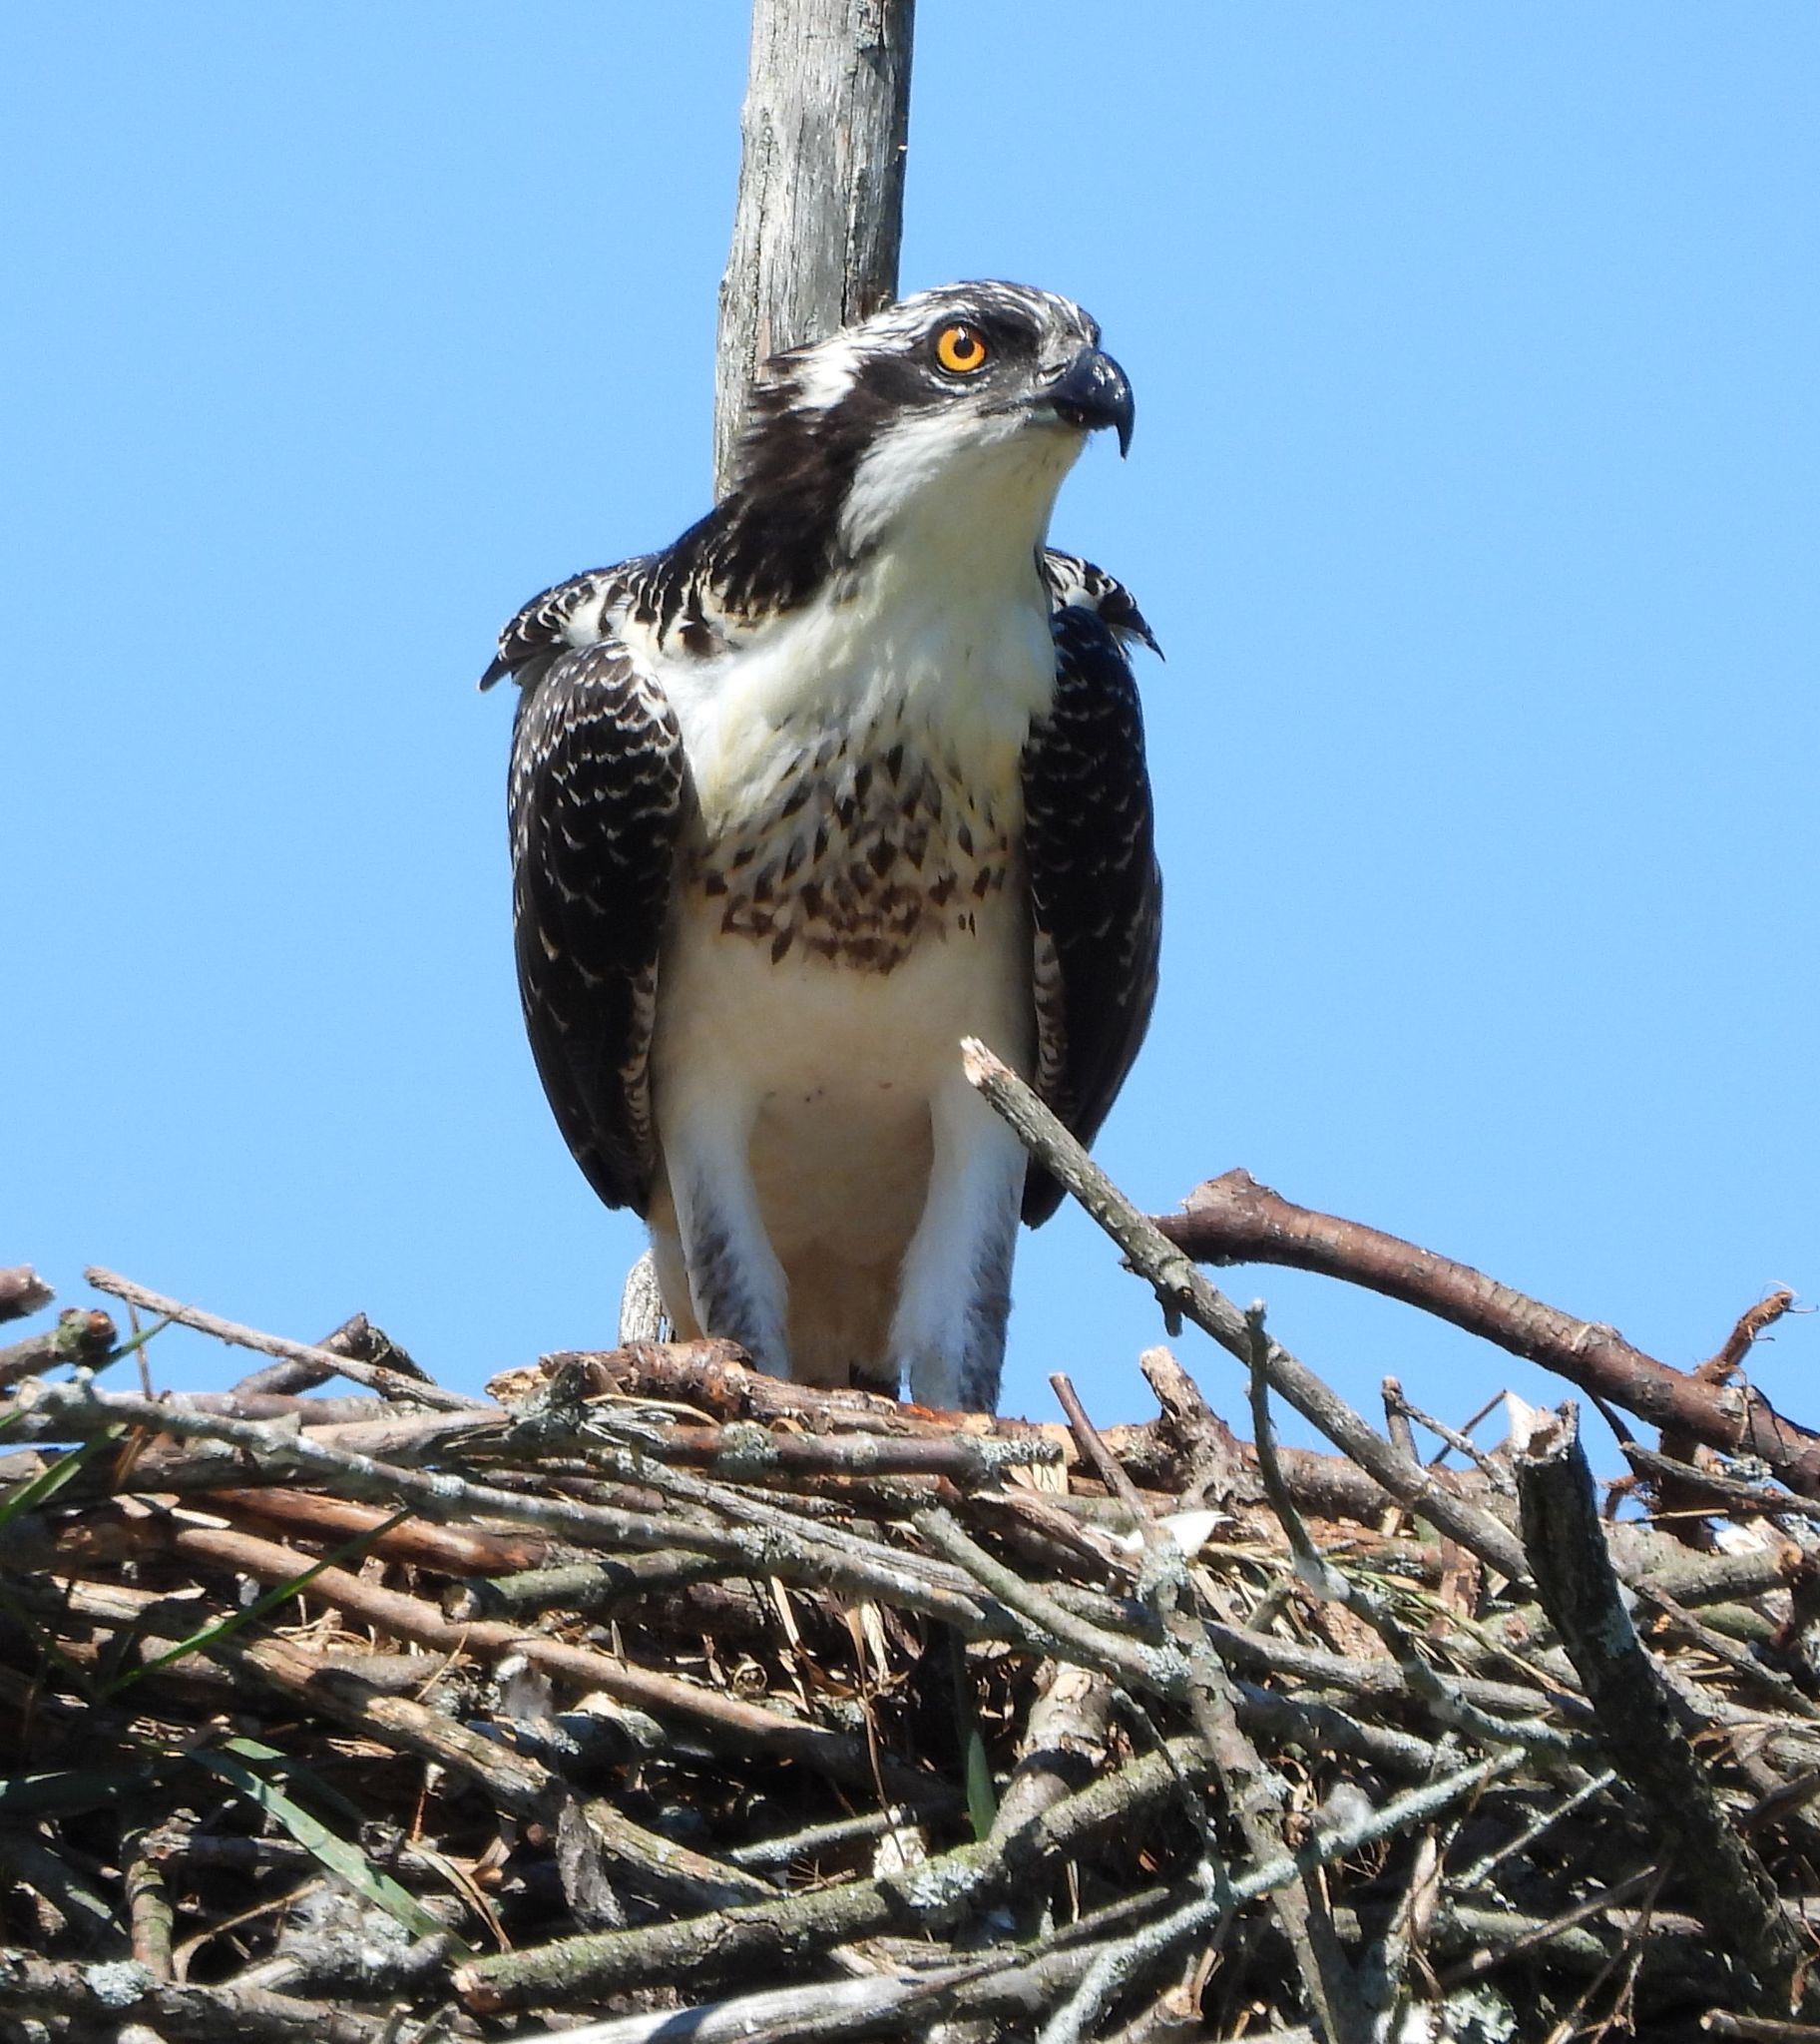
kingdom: Animalia
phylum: Chordata
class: Aves
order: Accipitriformes
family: Pandionidae
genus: Pandion
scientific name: Pandion haliaetus
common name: Osprey
